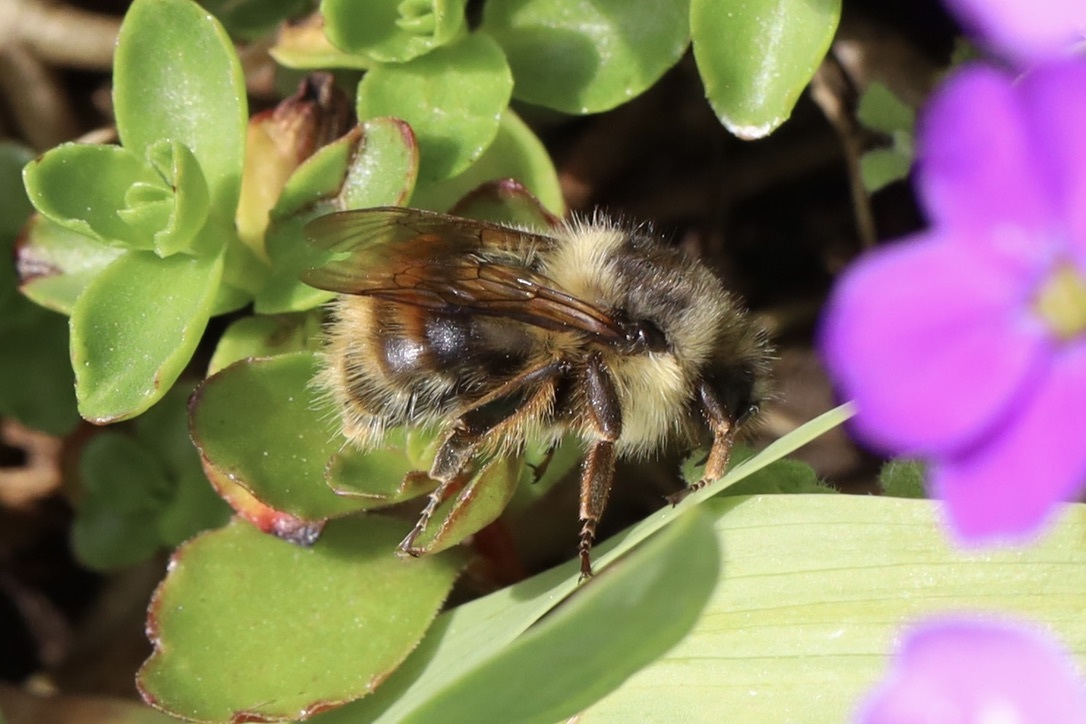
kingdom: Animalia
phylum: Arthropoda
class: Insecta
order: Hymenoptera
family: Apidae
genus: Bombus
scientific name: Bombus mixtus
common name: Fuzzy-horned bumble bee
